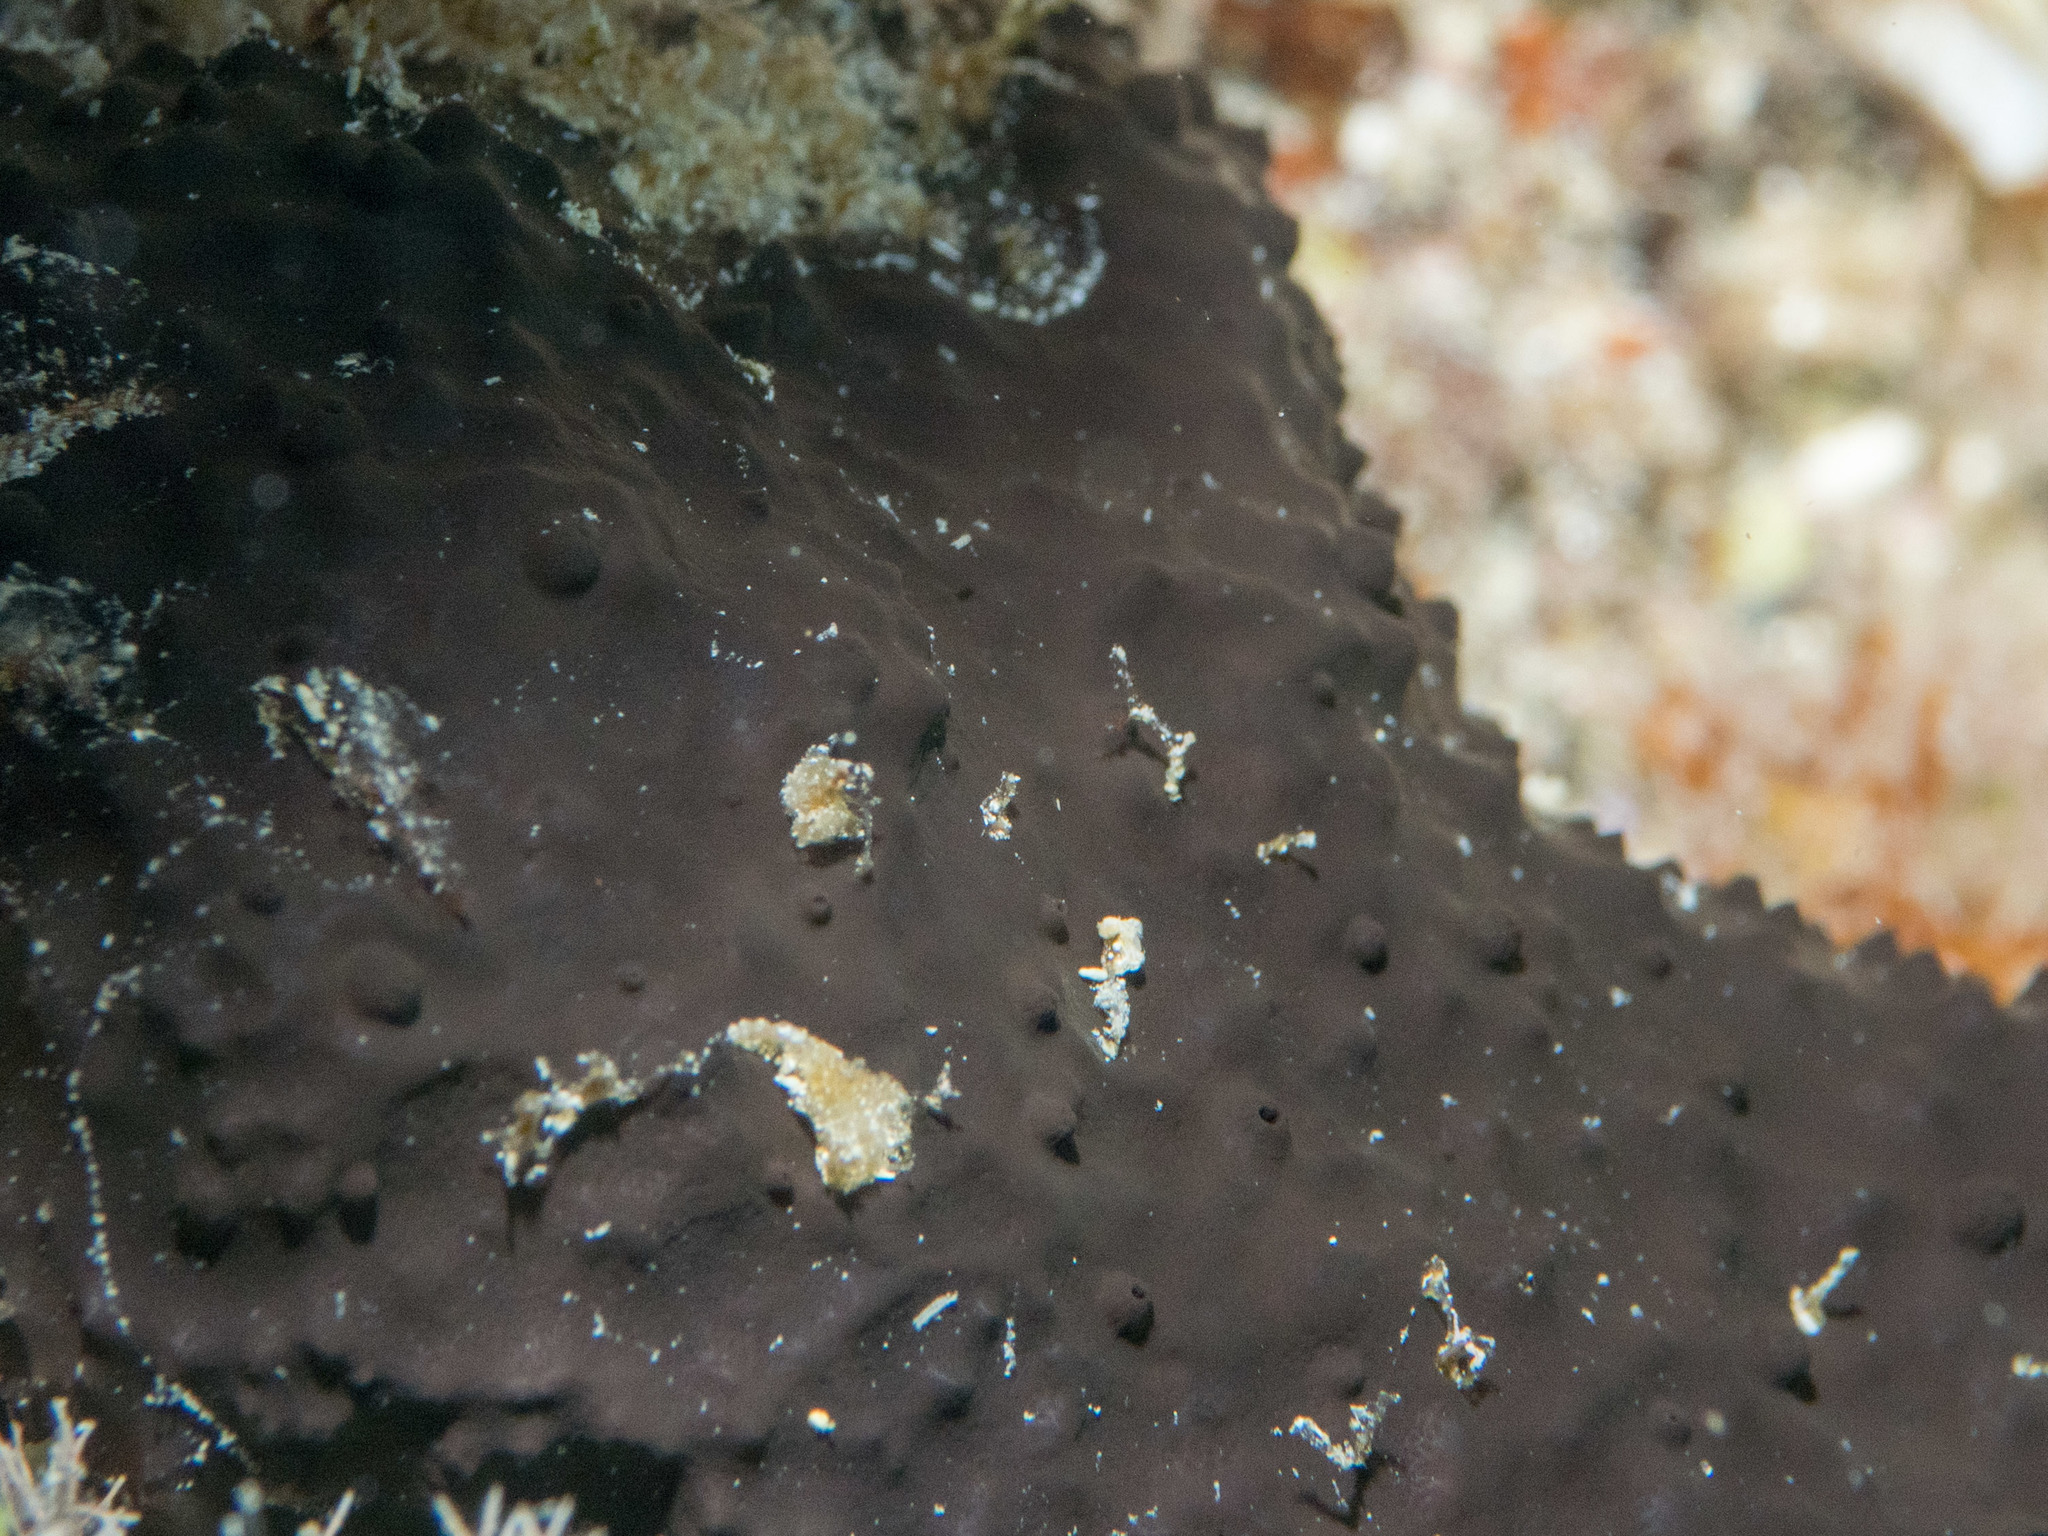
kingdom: Animalia
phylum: Porifera
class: Demospongiae
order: Dictyoceratida
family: Irciniidae
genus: Sarcotragus
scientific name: Sarcotragus spinosulus
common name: Black leather sponge
